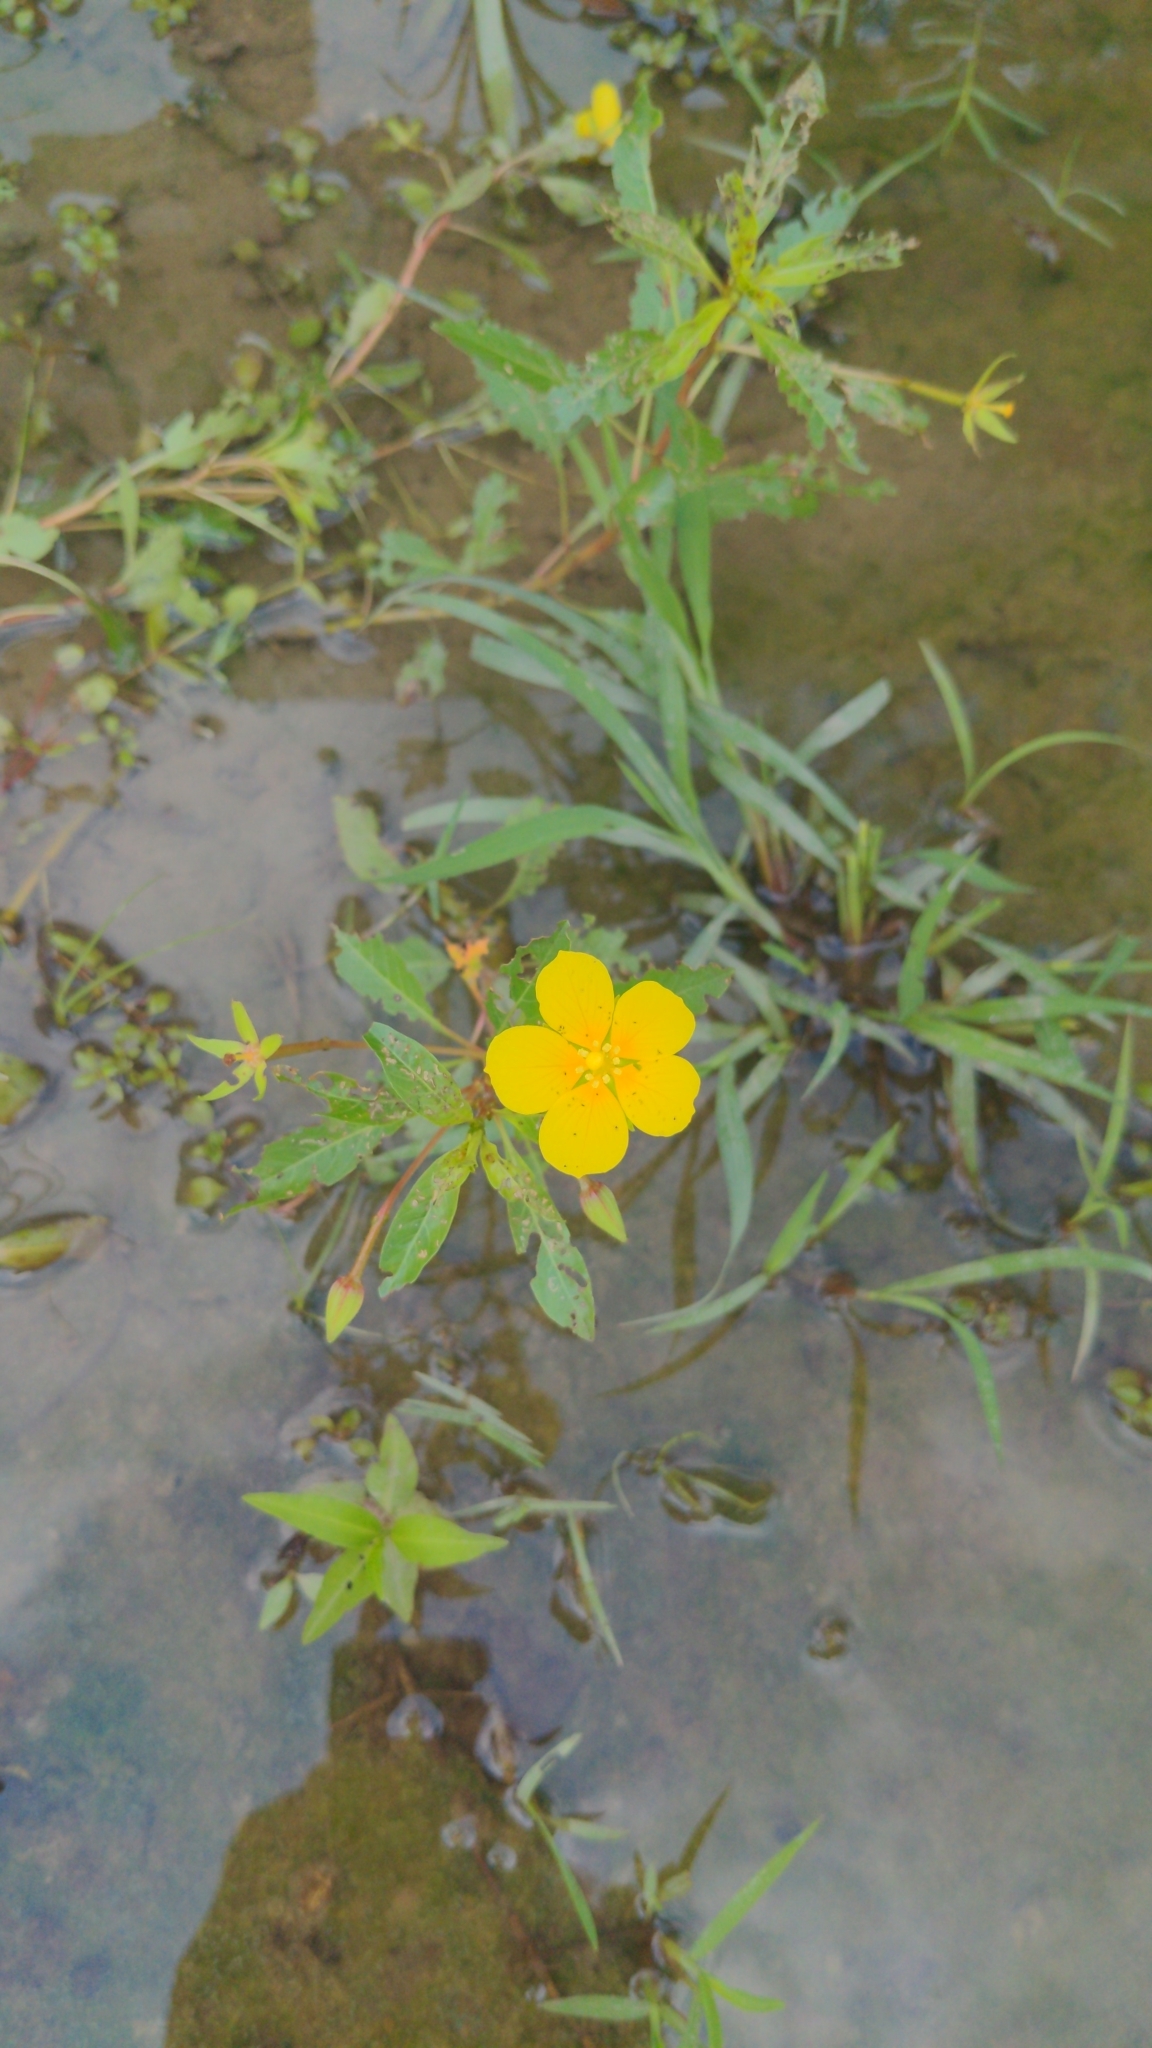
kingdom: Plantae
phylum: Tracheophyta
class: Magnoliopsida
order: Myrtales
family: Onagraceae
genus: Ludwigia
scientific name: Ludwigia leptocarpa
